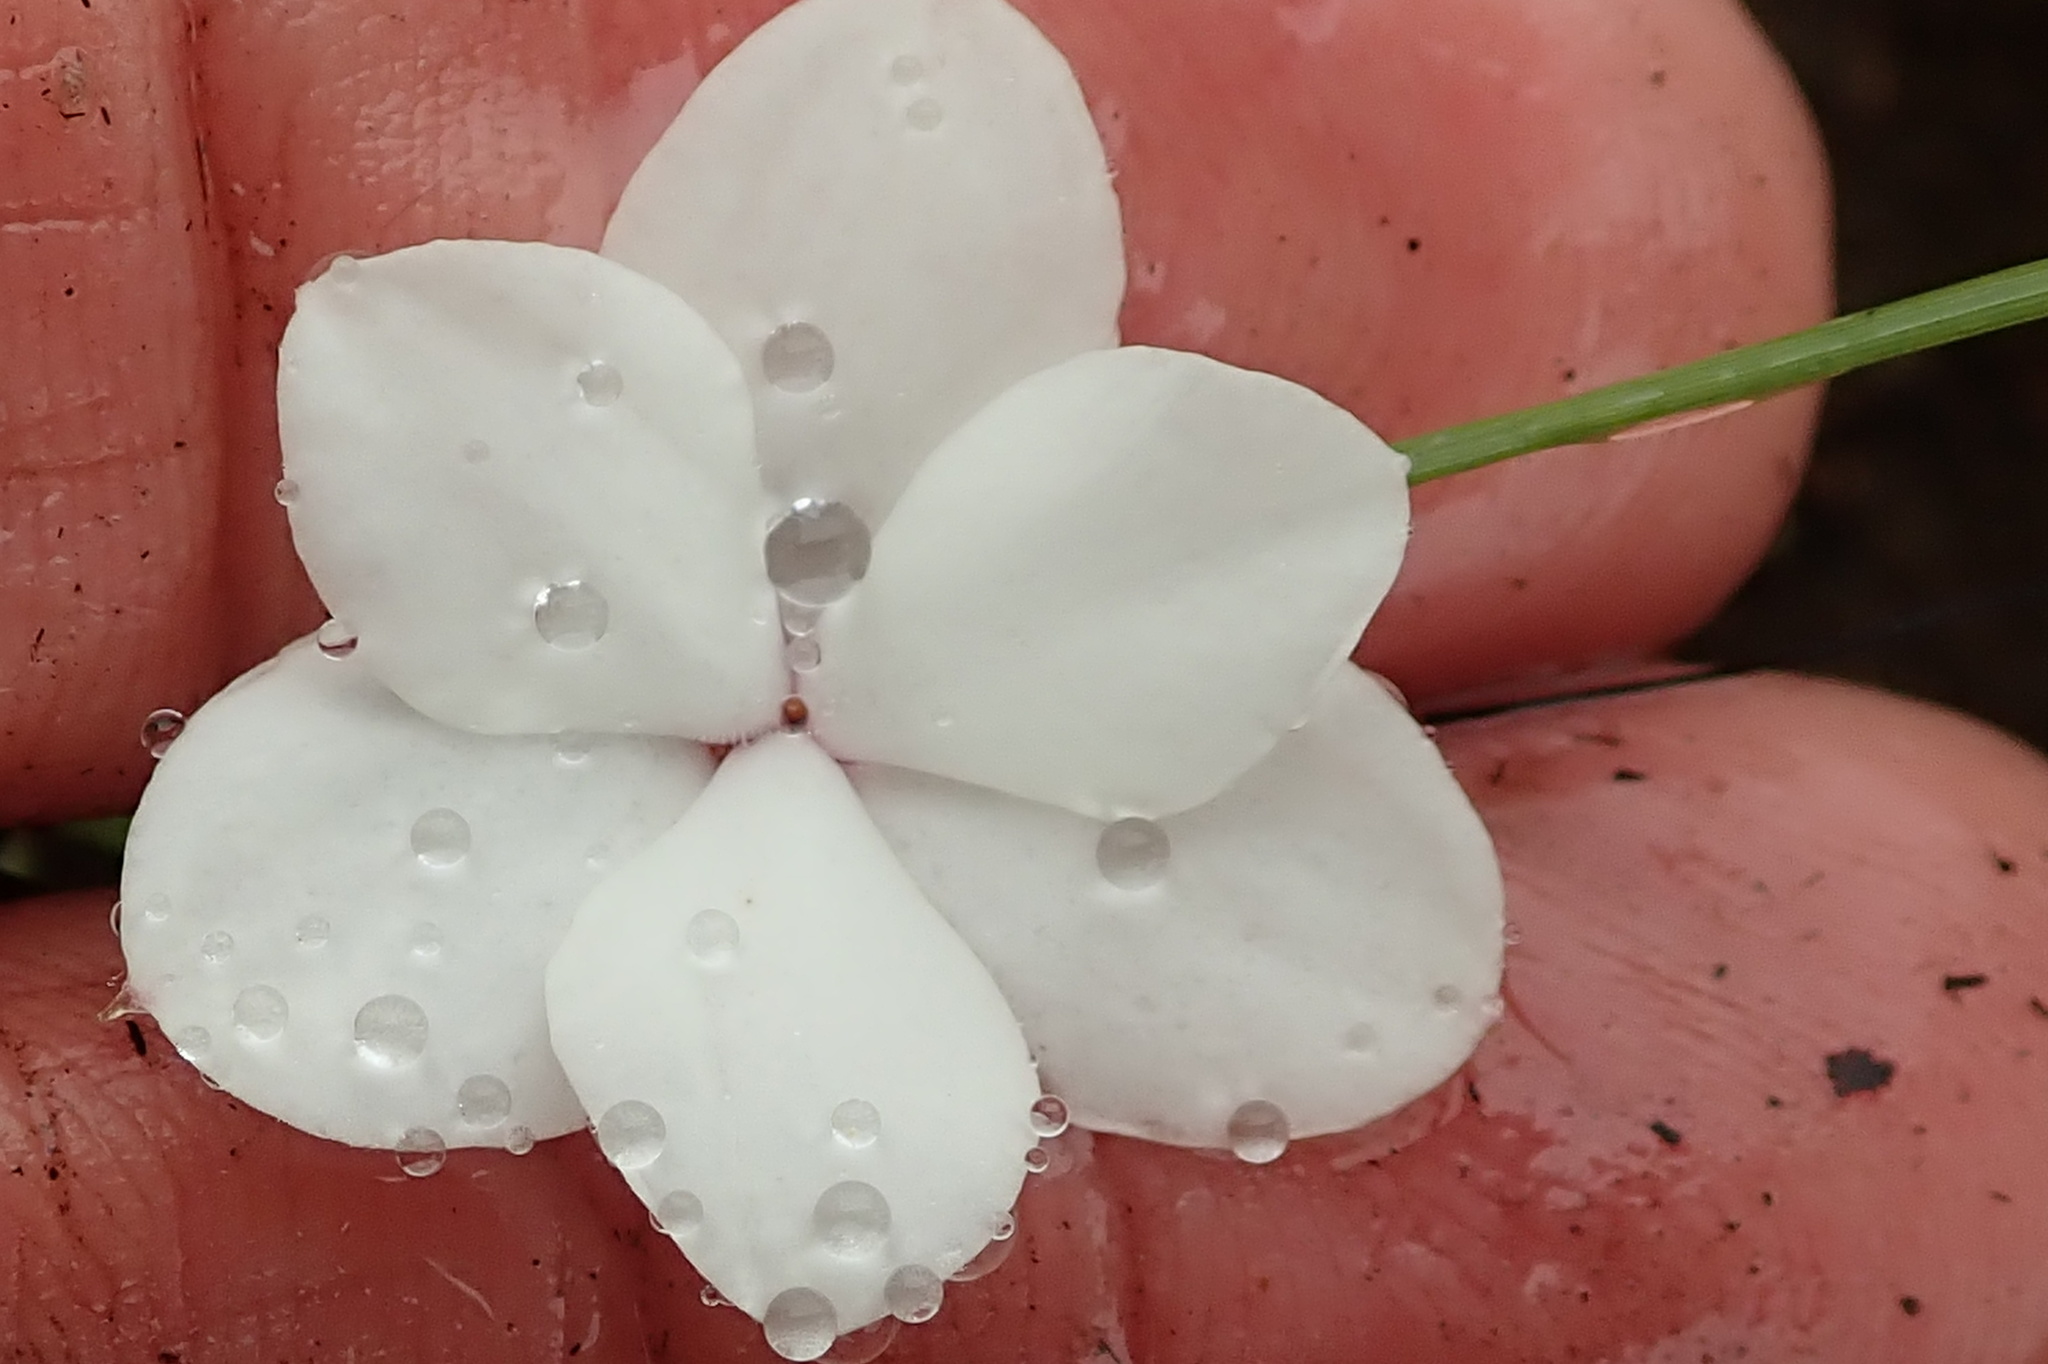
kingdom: Plantae
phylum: Tracheophyta
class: Liliopsida
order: Asparagales
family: Hypoxidaceae
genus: Hypoxis
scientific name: Hypoxis baurii
